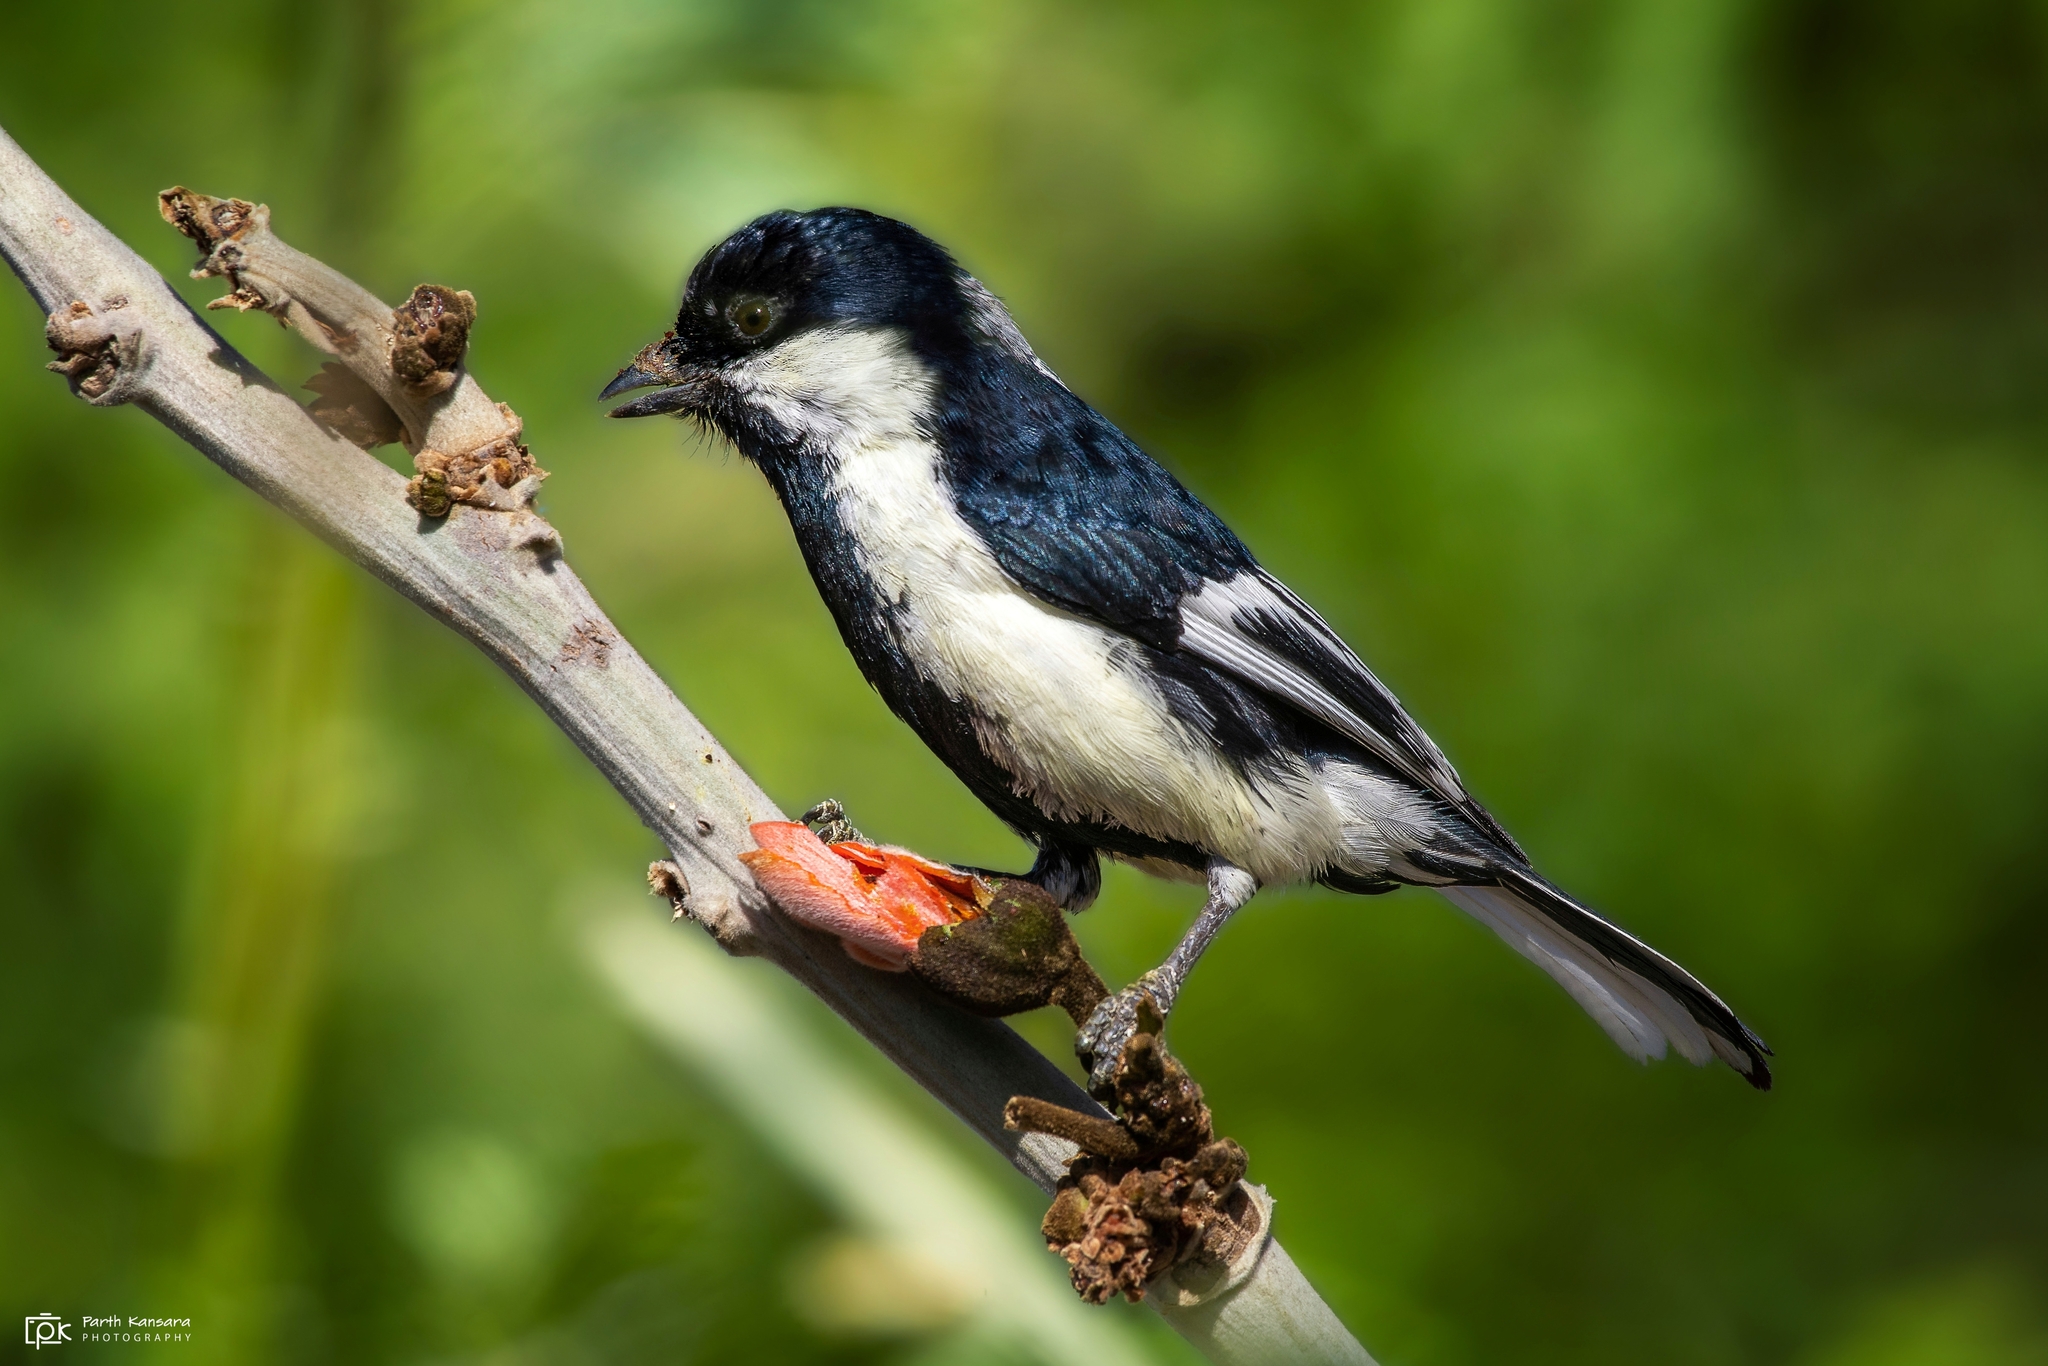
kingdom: Animalia
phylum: Chordata
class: Aves
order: Passeriformes
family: Paridae
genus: Parus
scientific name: Parus nuchalis
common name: White-naped tit
